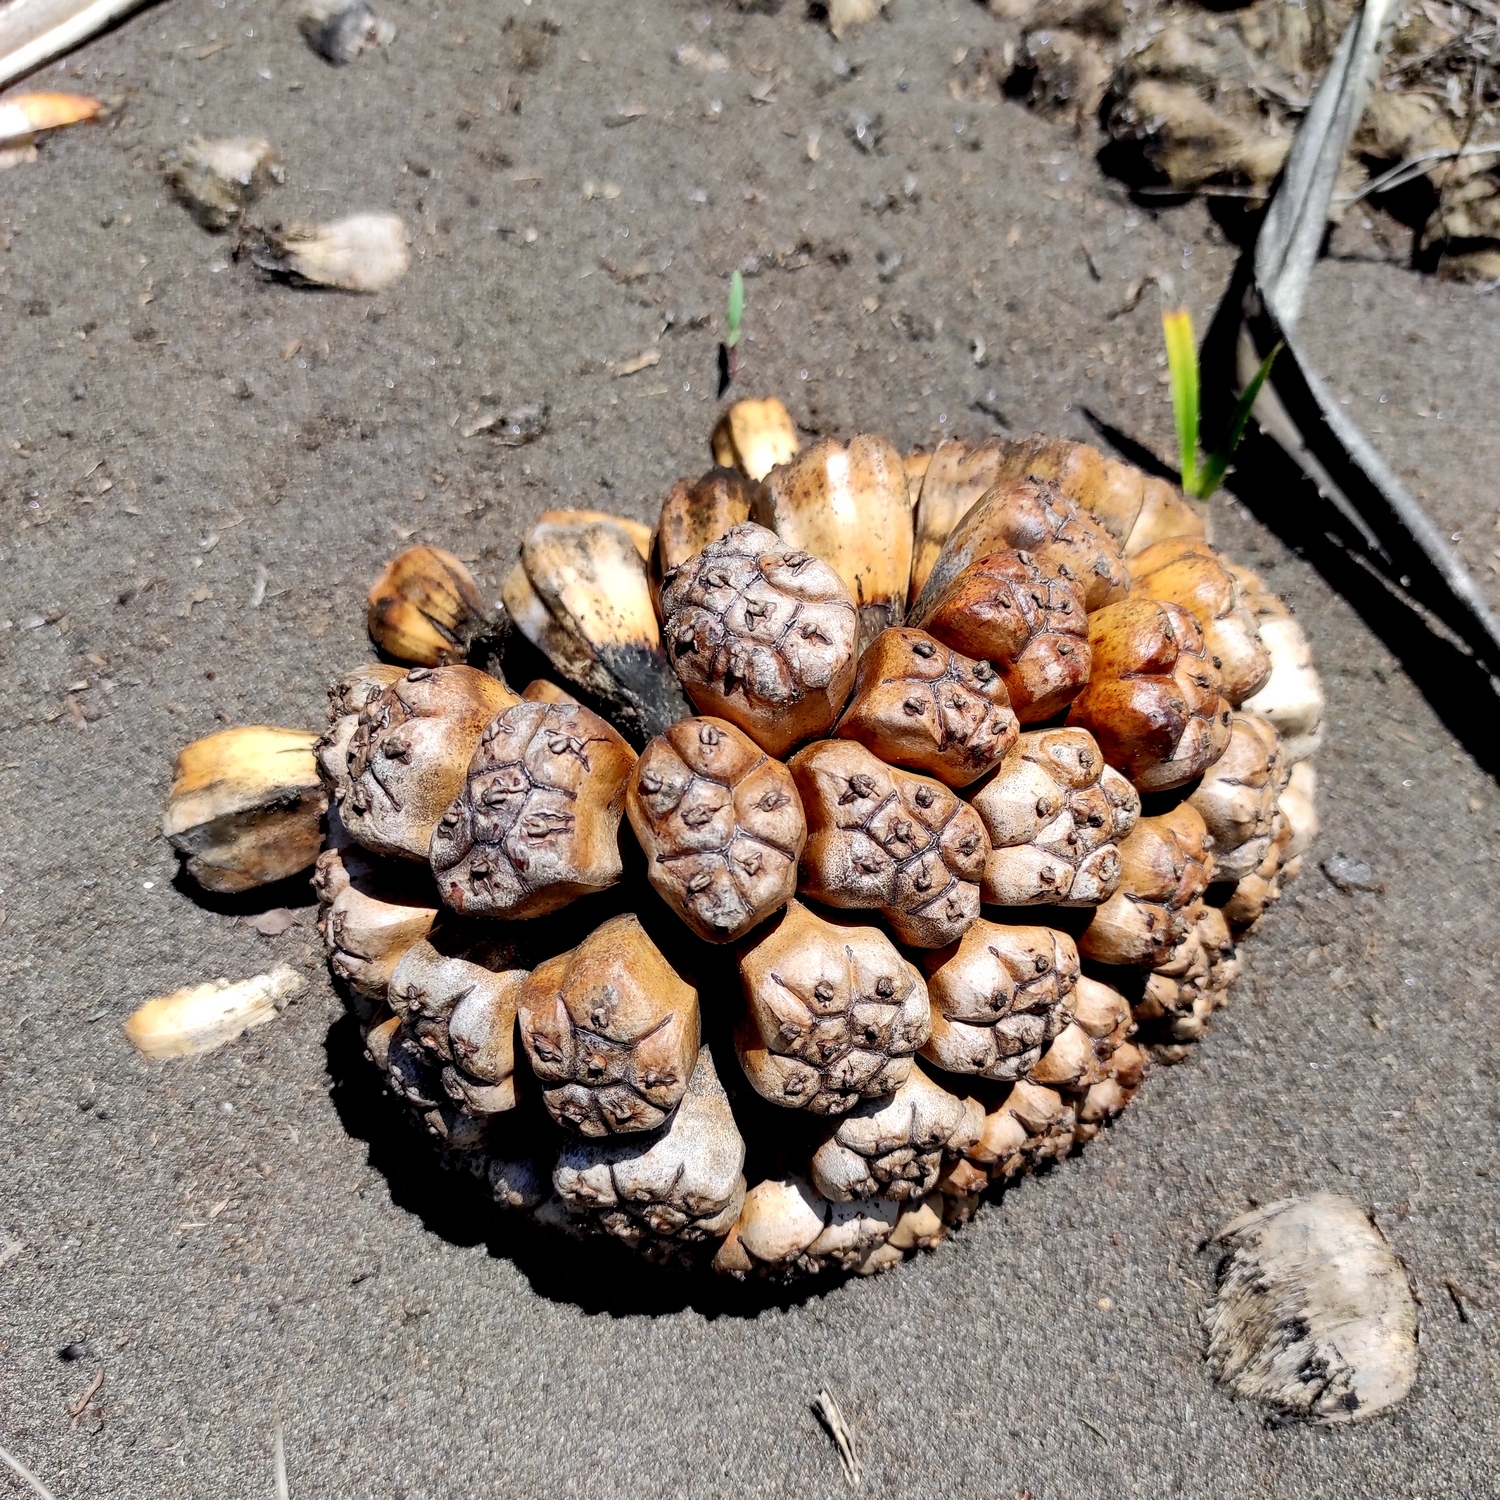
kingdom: Plantae
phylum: Tracheophyta
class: Liliopsida
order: Pandanales
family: Pandanaceae
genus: Pandanus
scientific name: Pandanus odorifer
